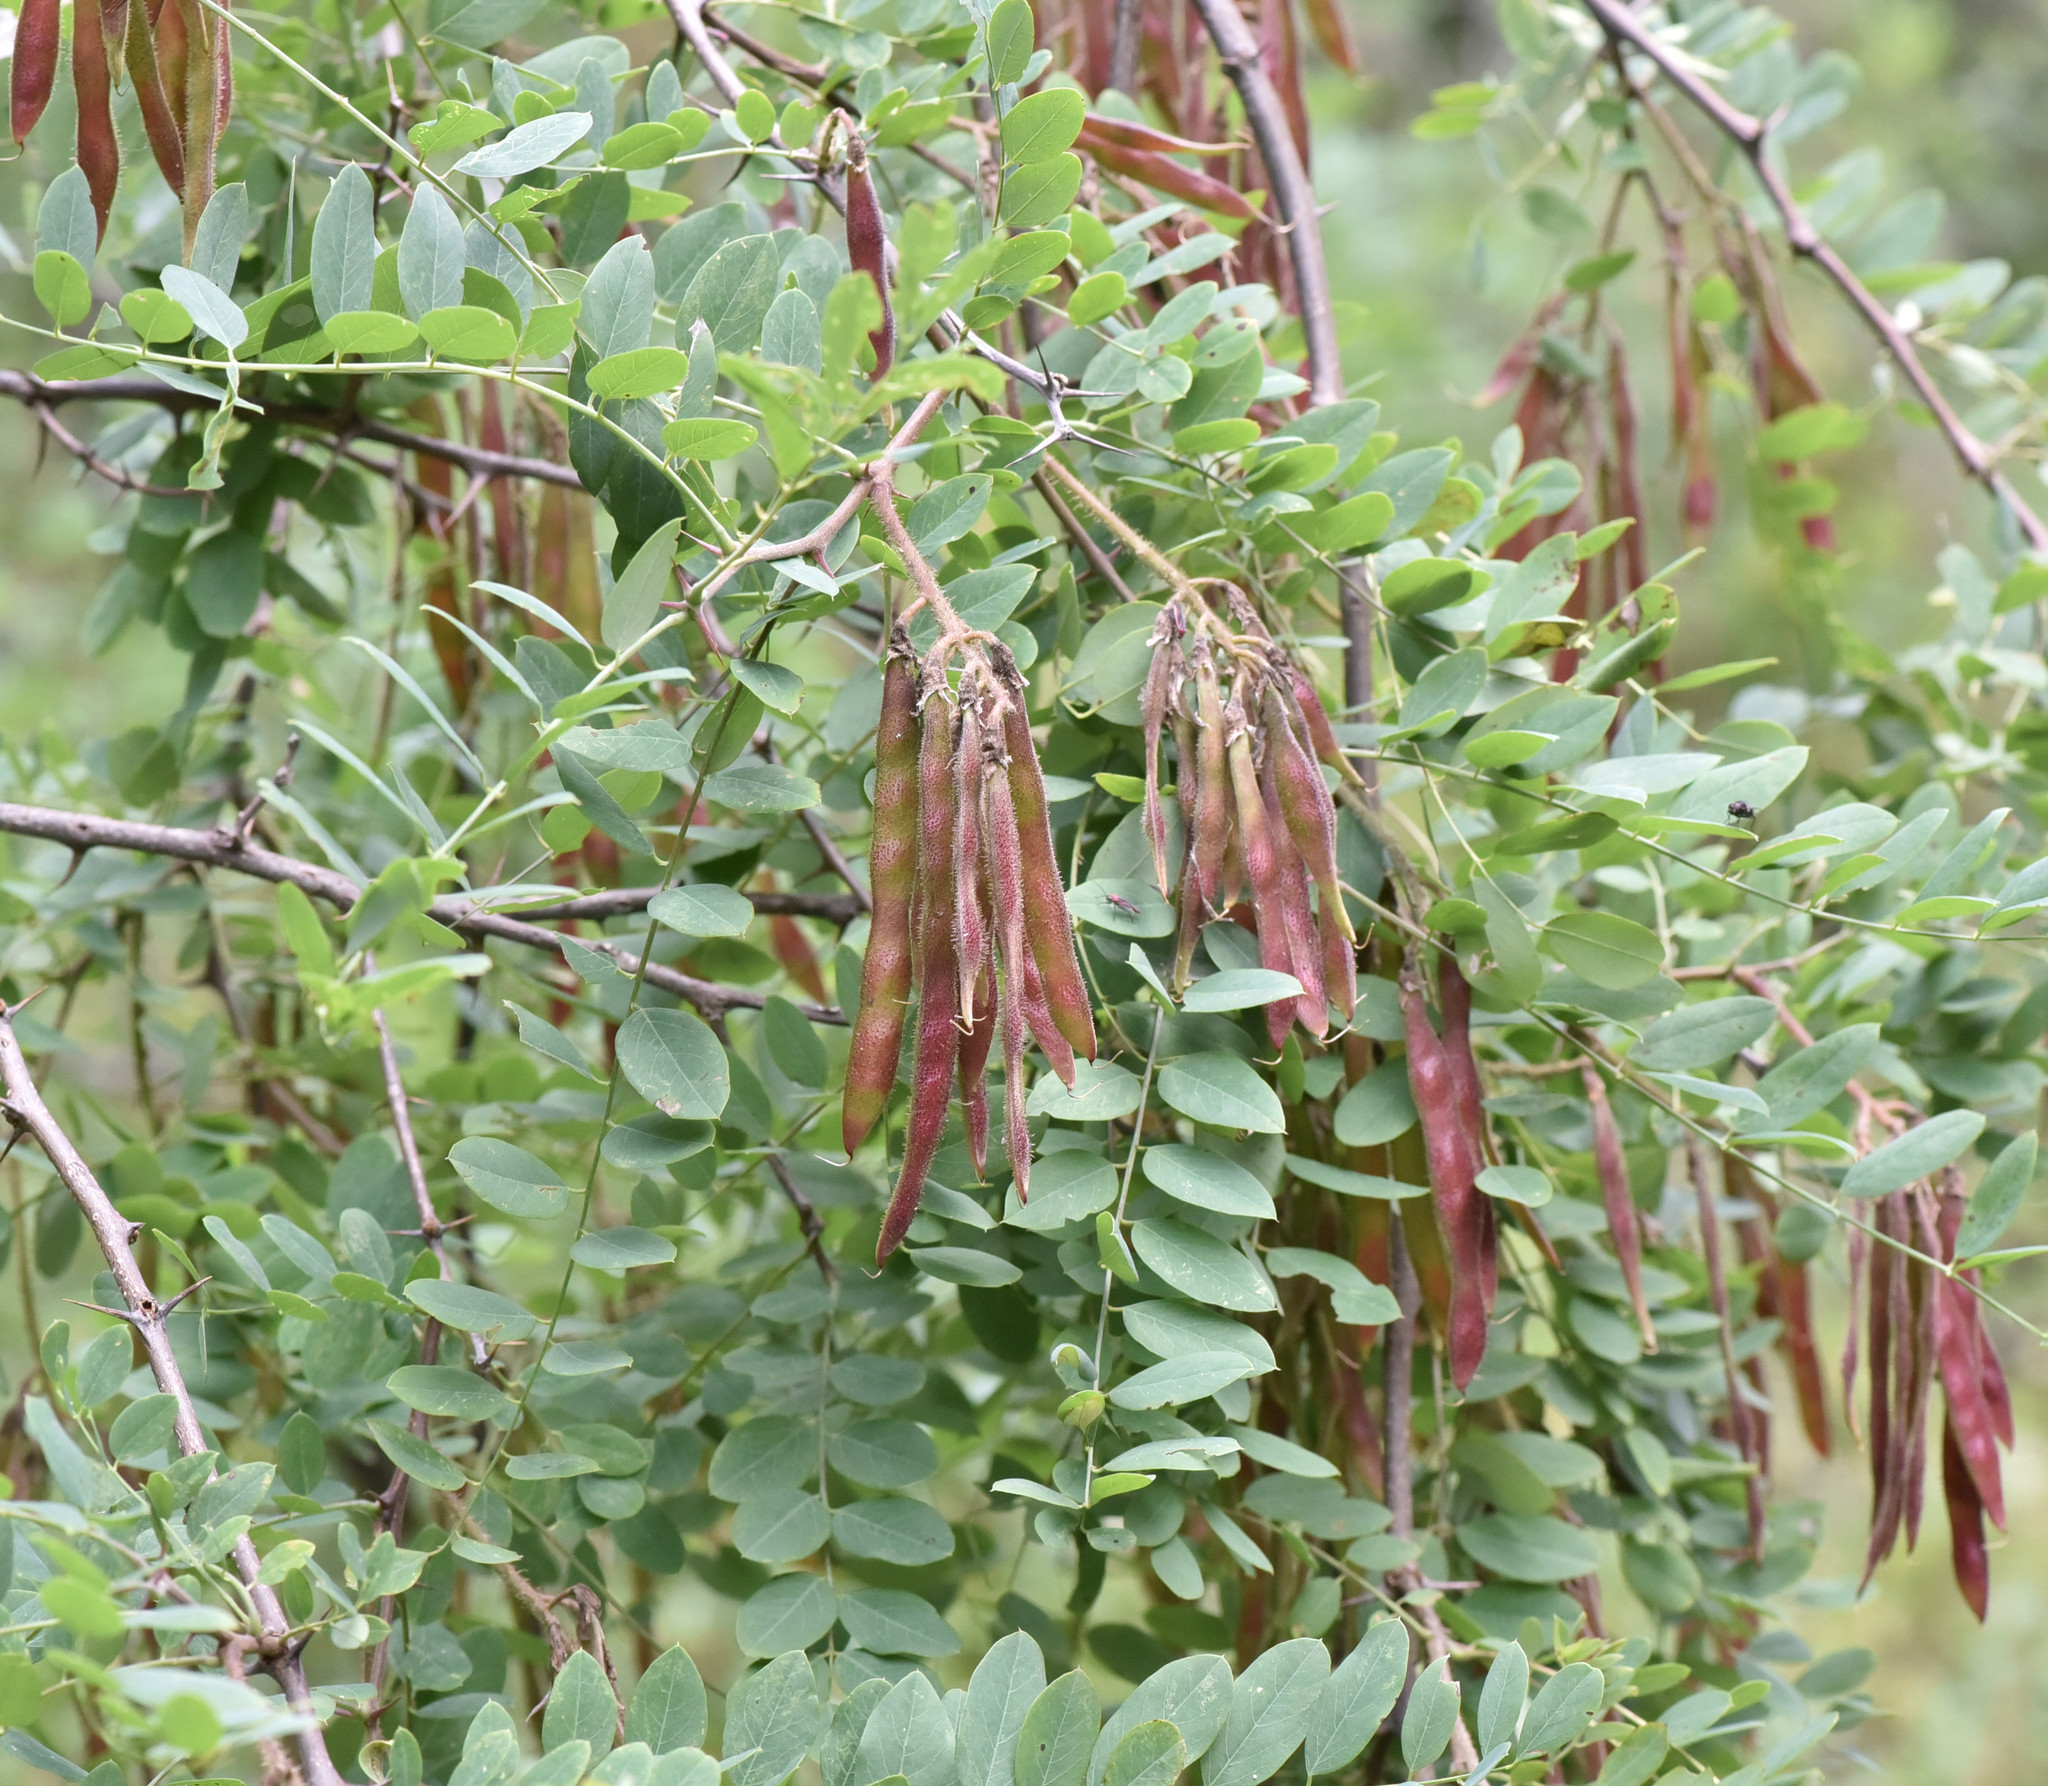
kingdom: Plantae
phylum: Tracheophyta
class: Magnoliopsida
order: Fabales
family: Fabaceae
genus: Robinia
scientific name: Robinia neomexicana
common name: New mexico locust
